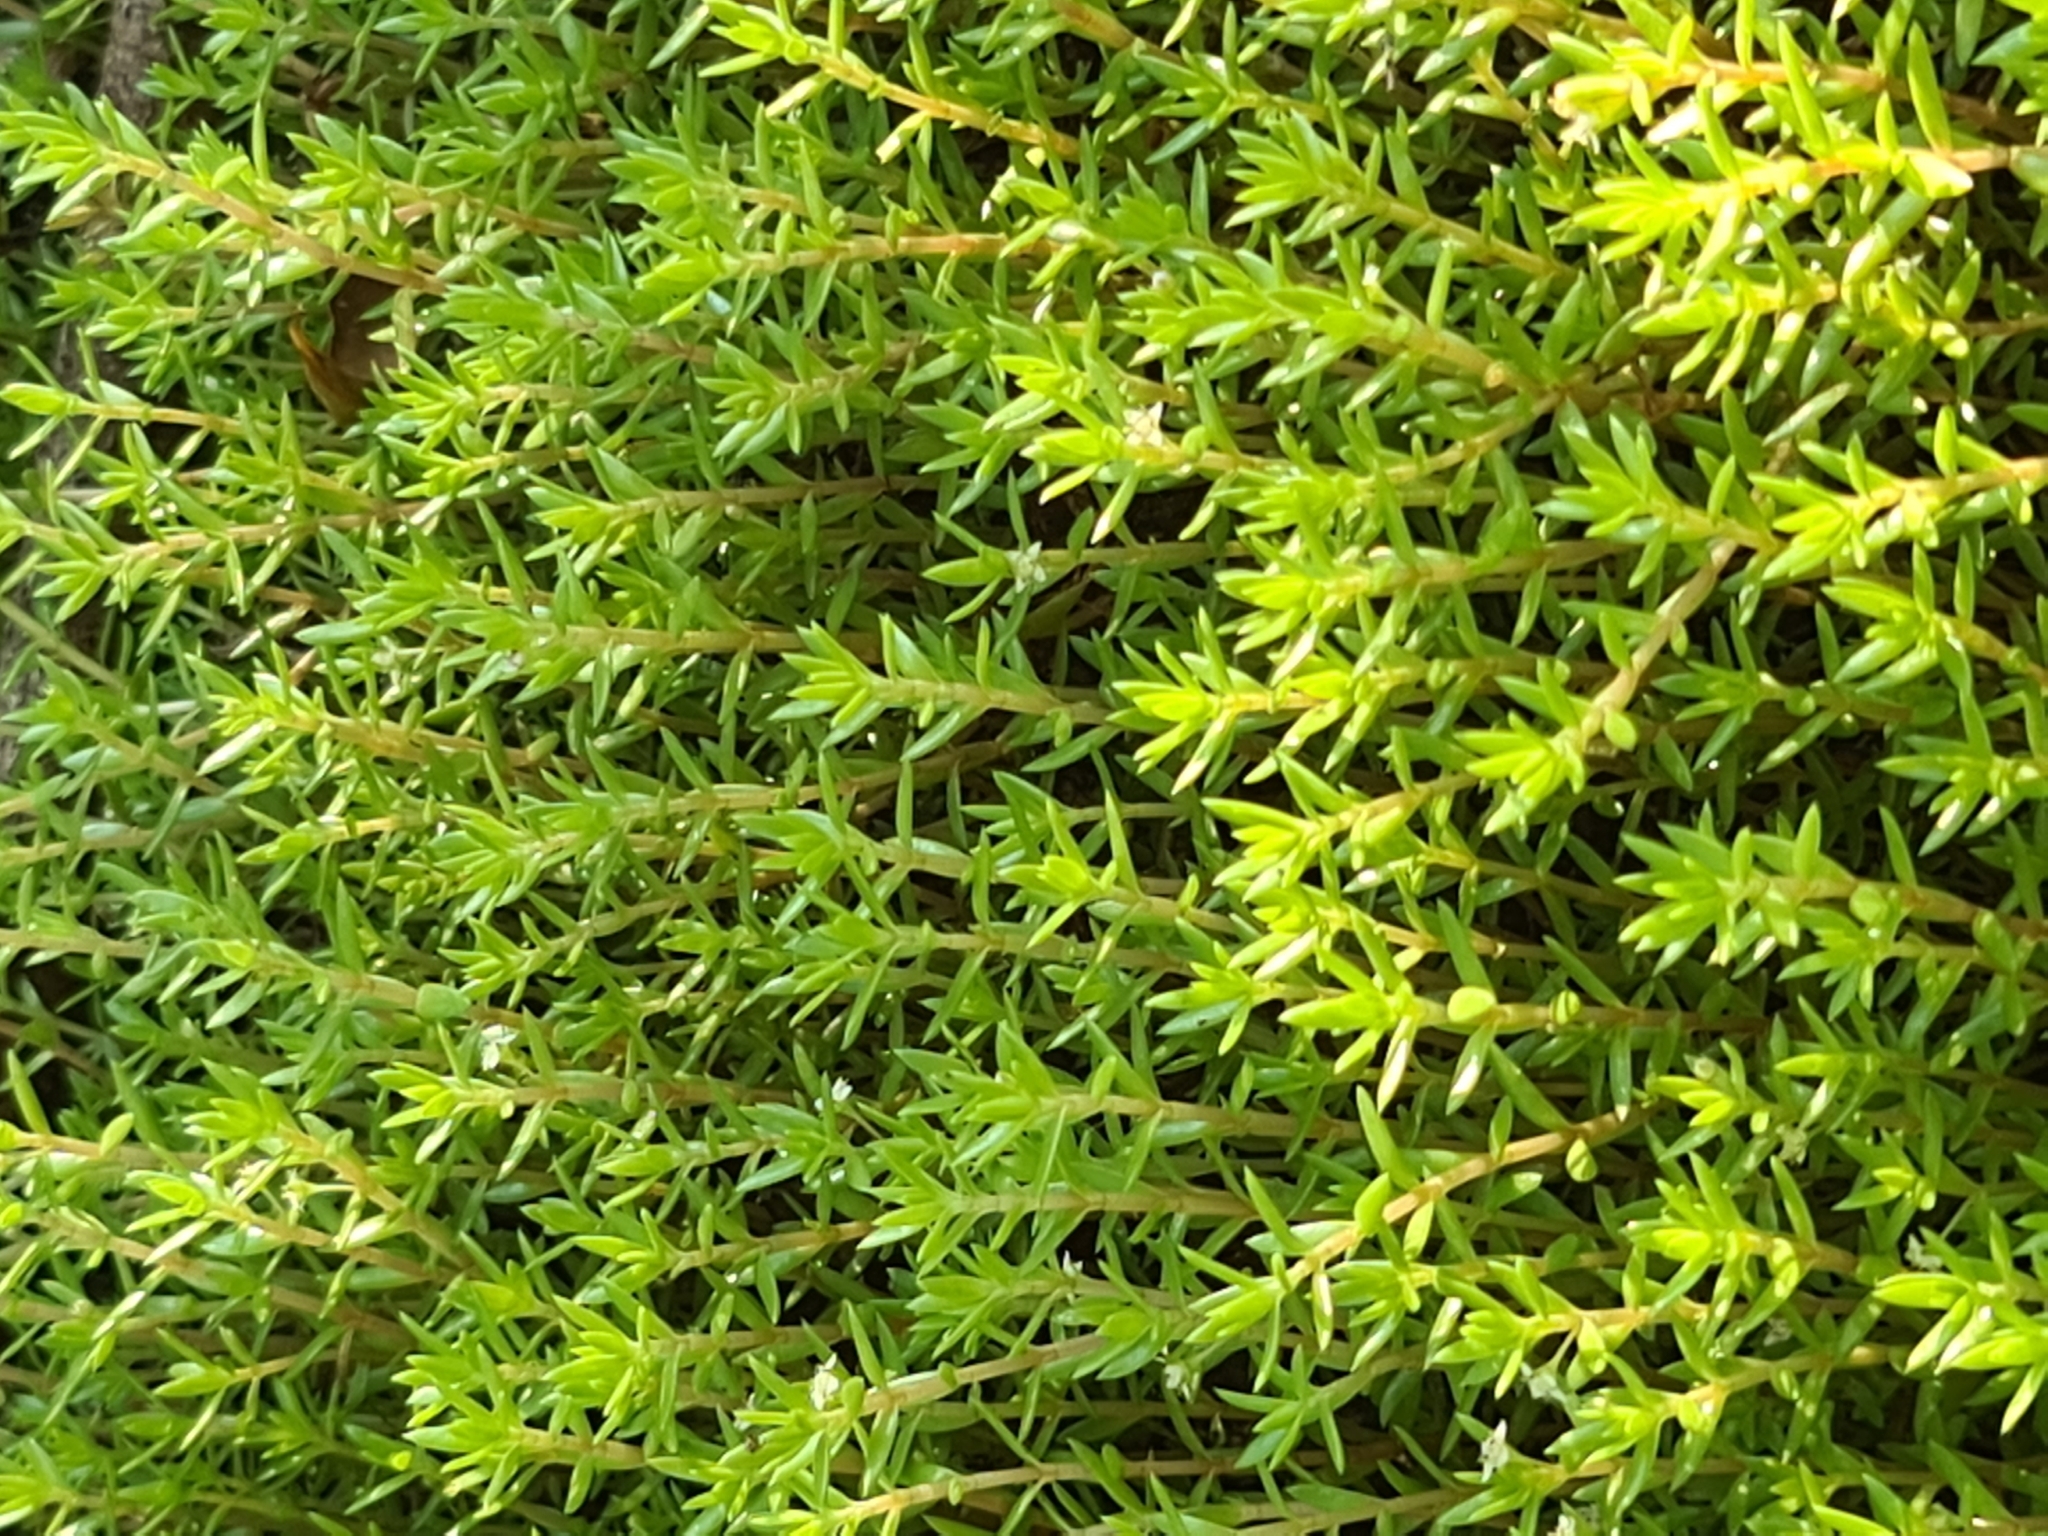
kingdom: Plantae
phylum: Tracheophyta
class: Magnoliopsida
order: Saxifragales
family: Crassulaceae
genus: Crassula
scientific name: Crassula helmsii
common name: New zealand pigmyweed
